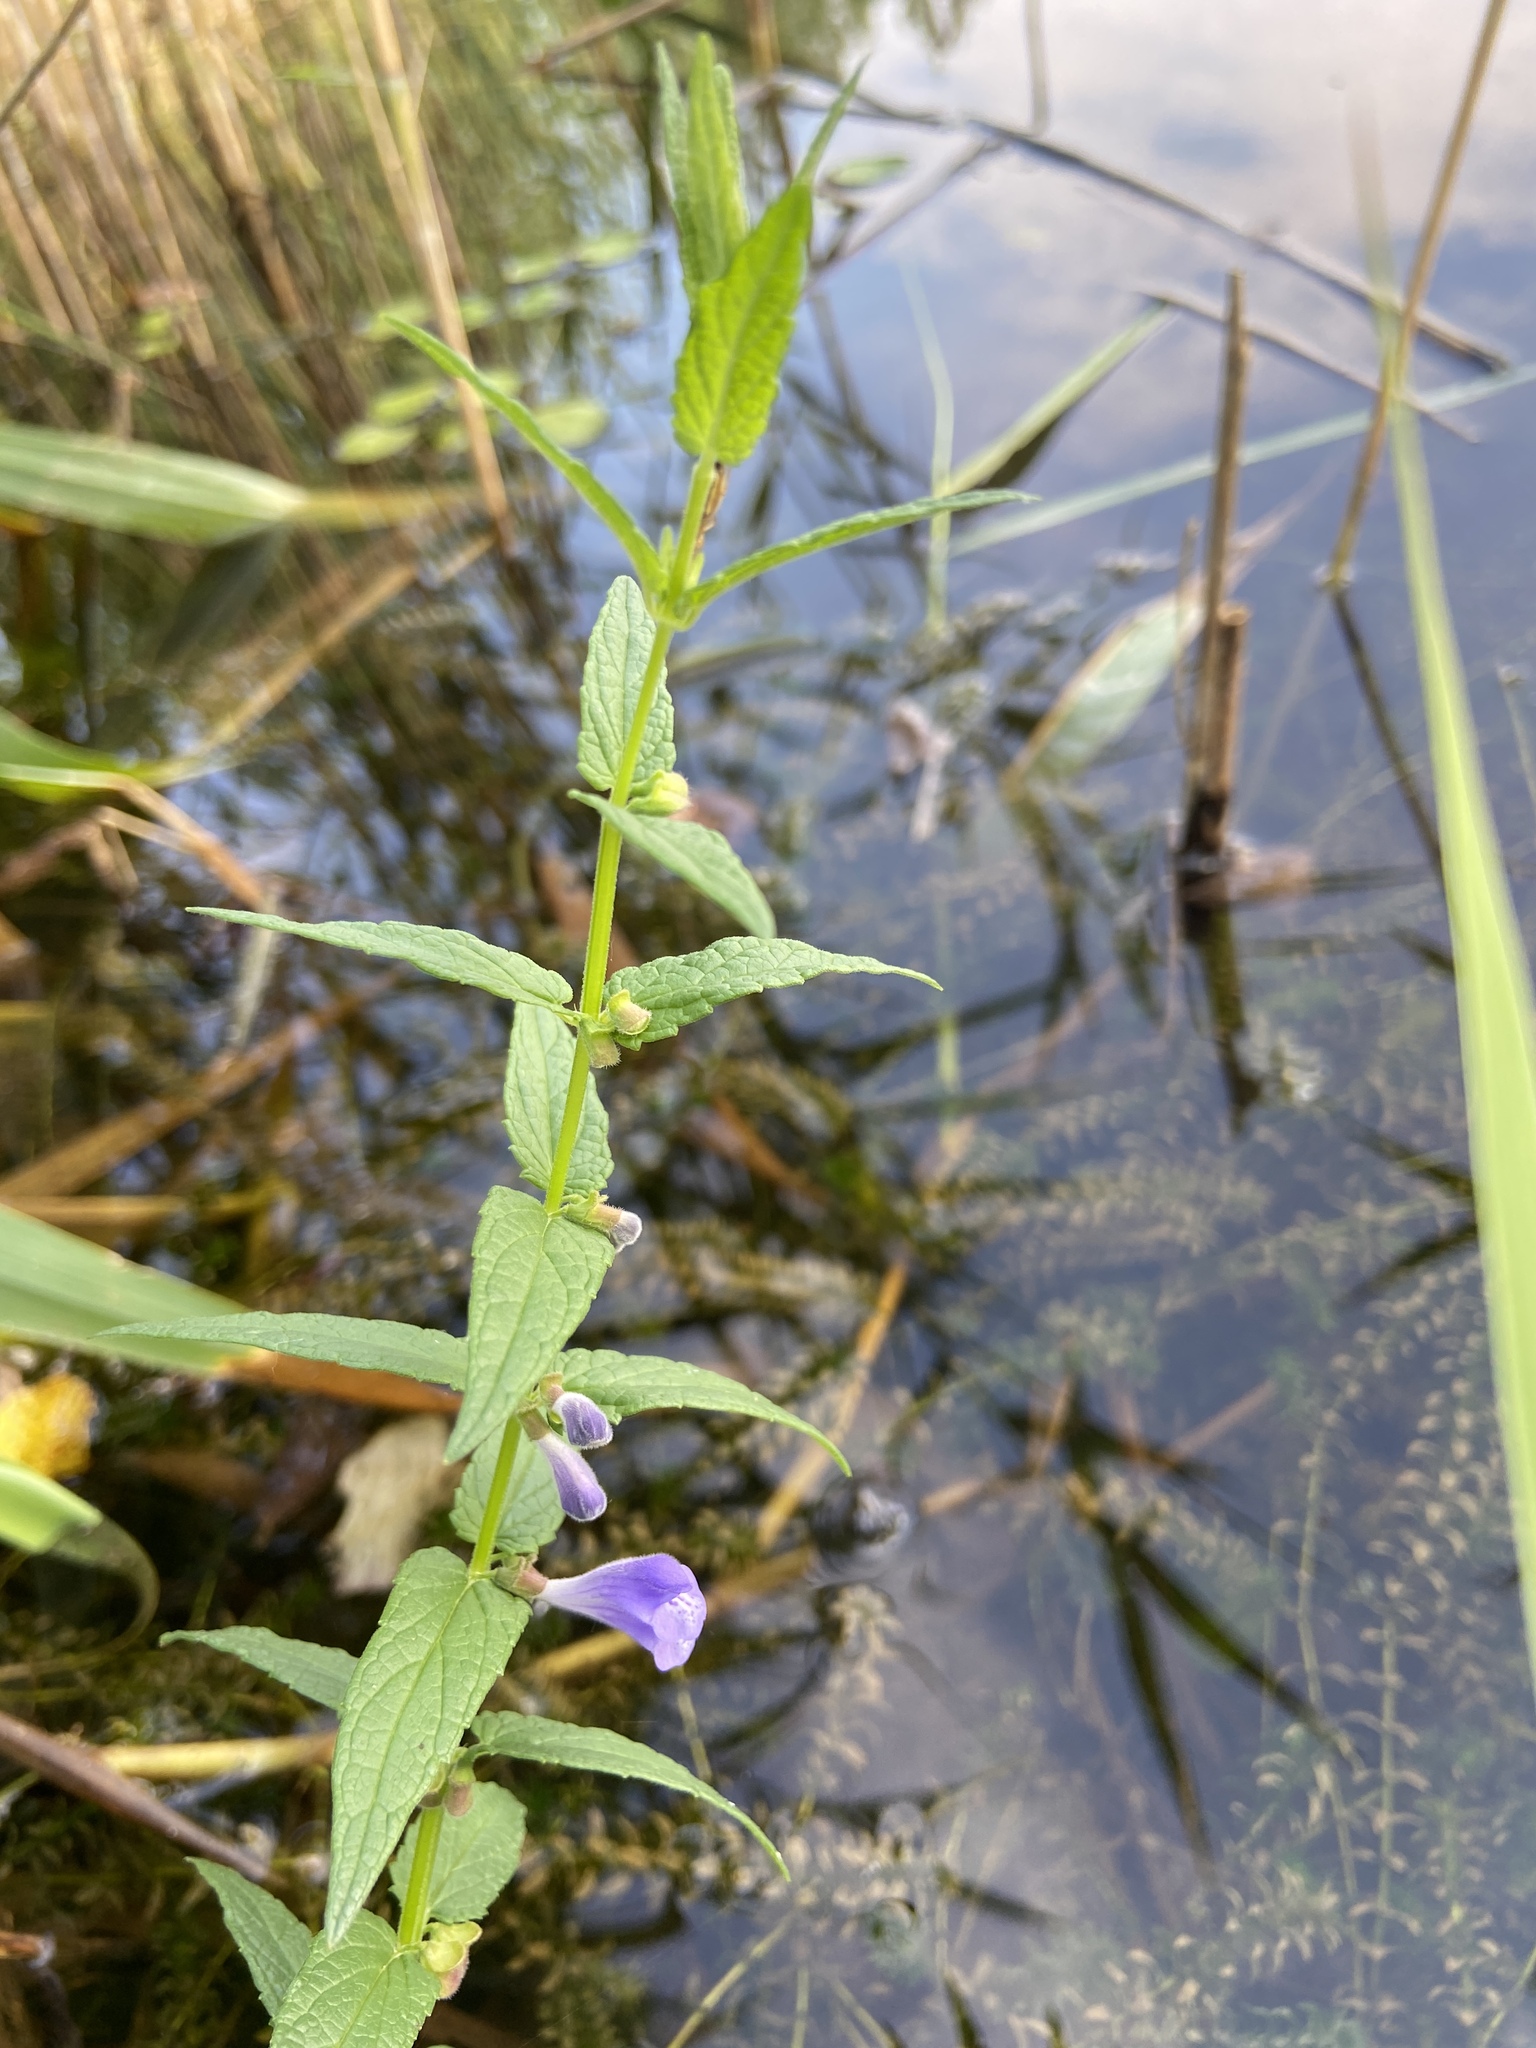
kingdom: Plantae
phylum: Tracheophyta
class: Magnoliopsida
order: Lamiales
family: Lamiaceae
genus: Scutellaria
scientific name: Scutellaria galericulata
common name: Skullcap
